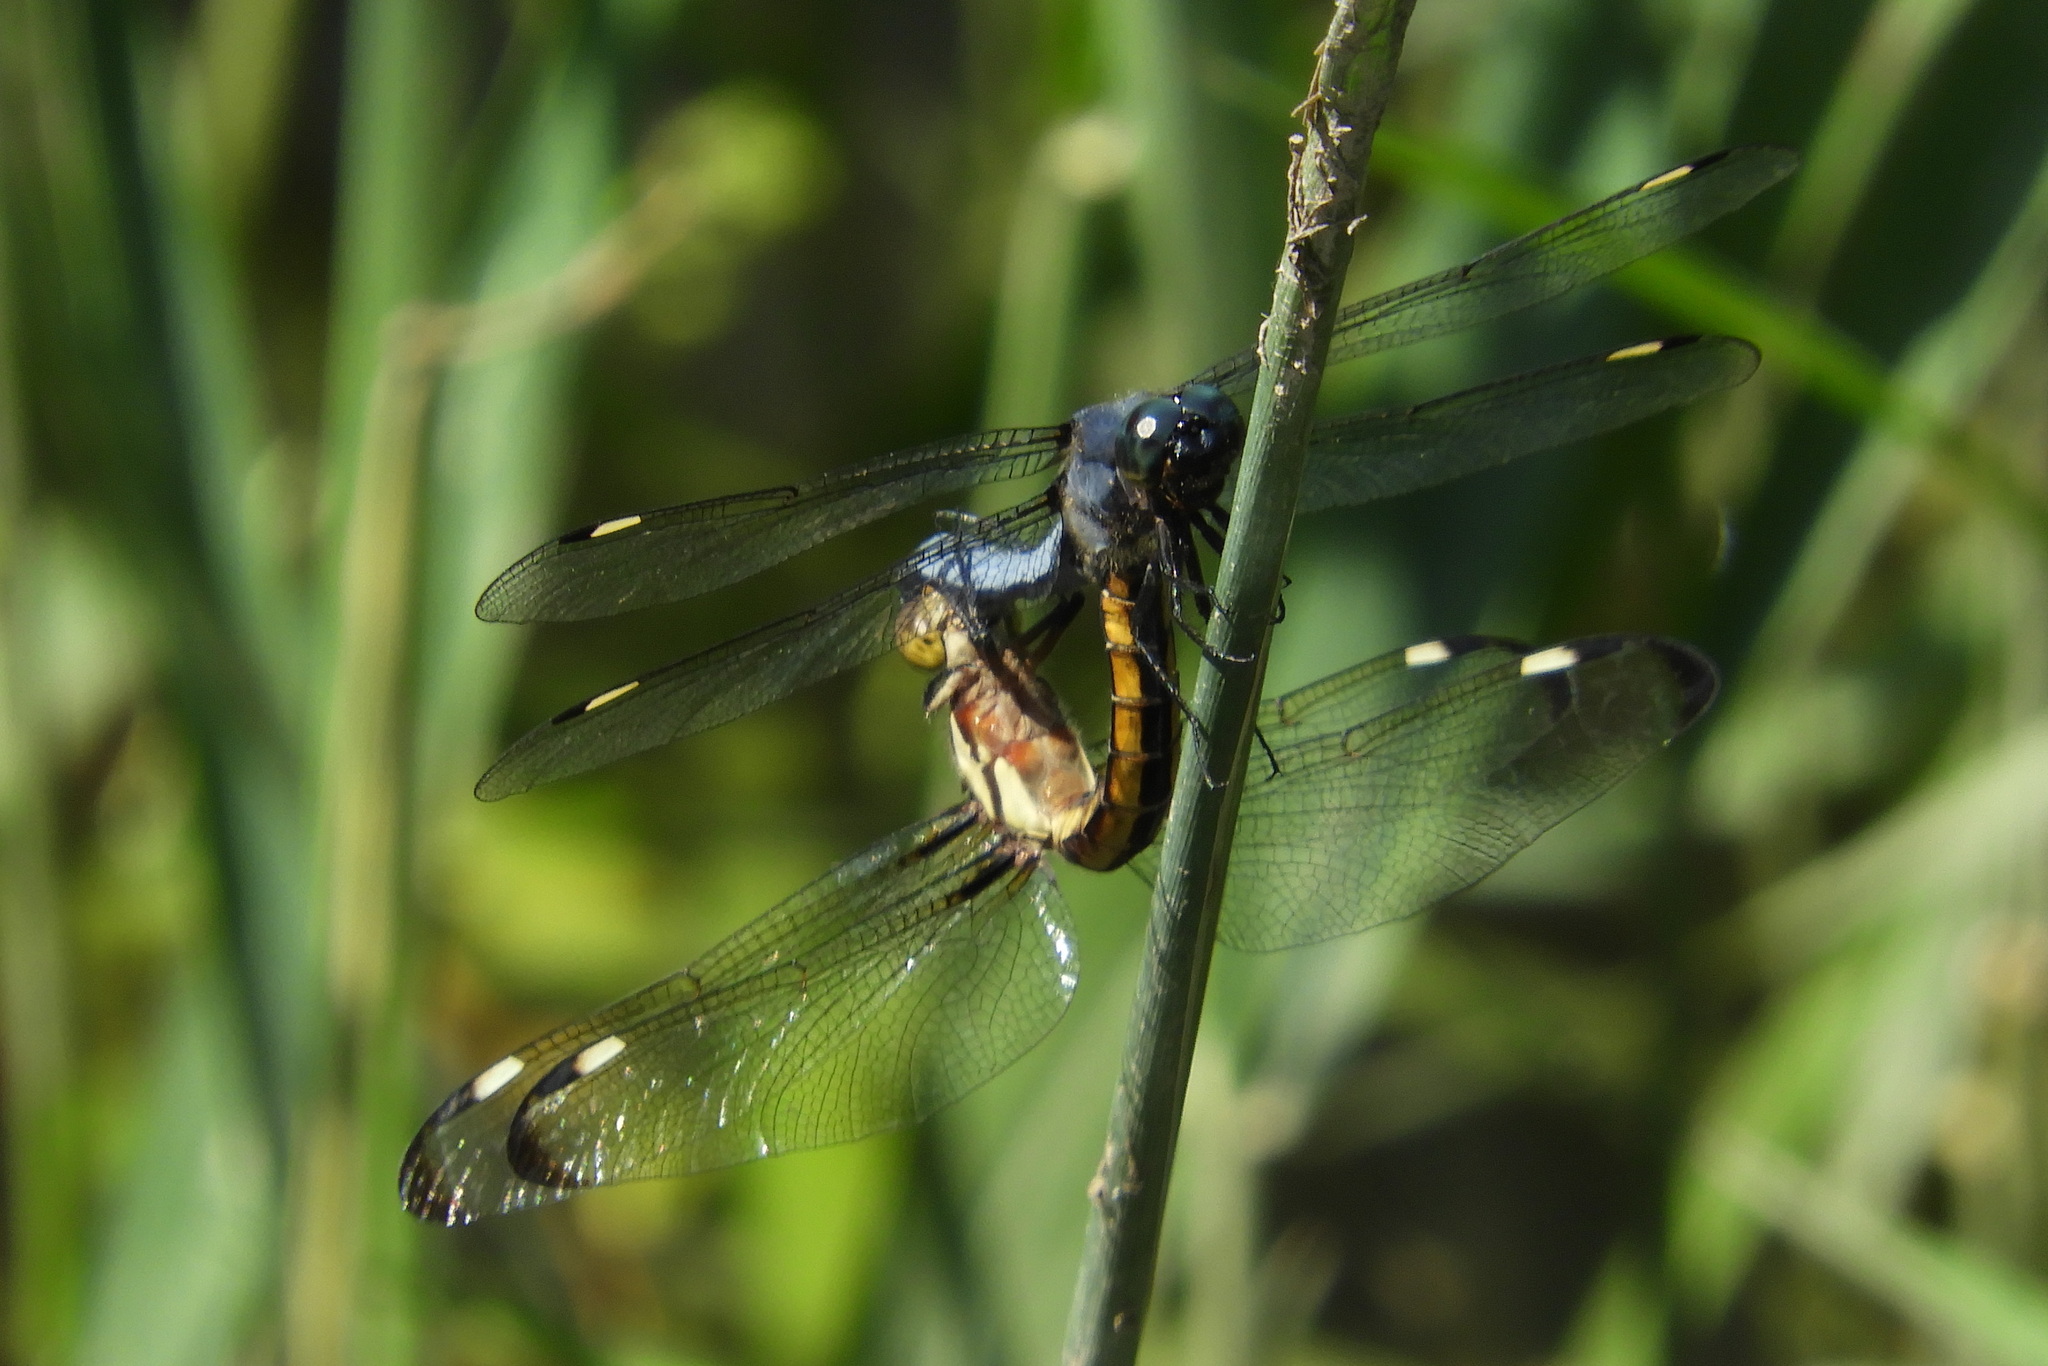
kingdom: Animalia
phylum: Arthropoda
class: Insecta
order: Odonata
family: Libellulidae
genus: Libellula
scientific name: Libellula cyanea
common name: Spangled skimmer
